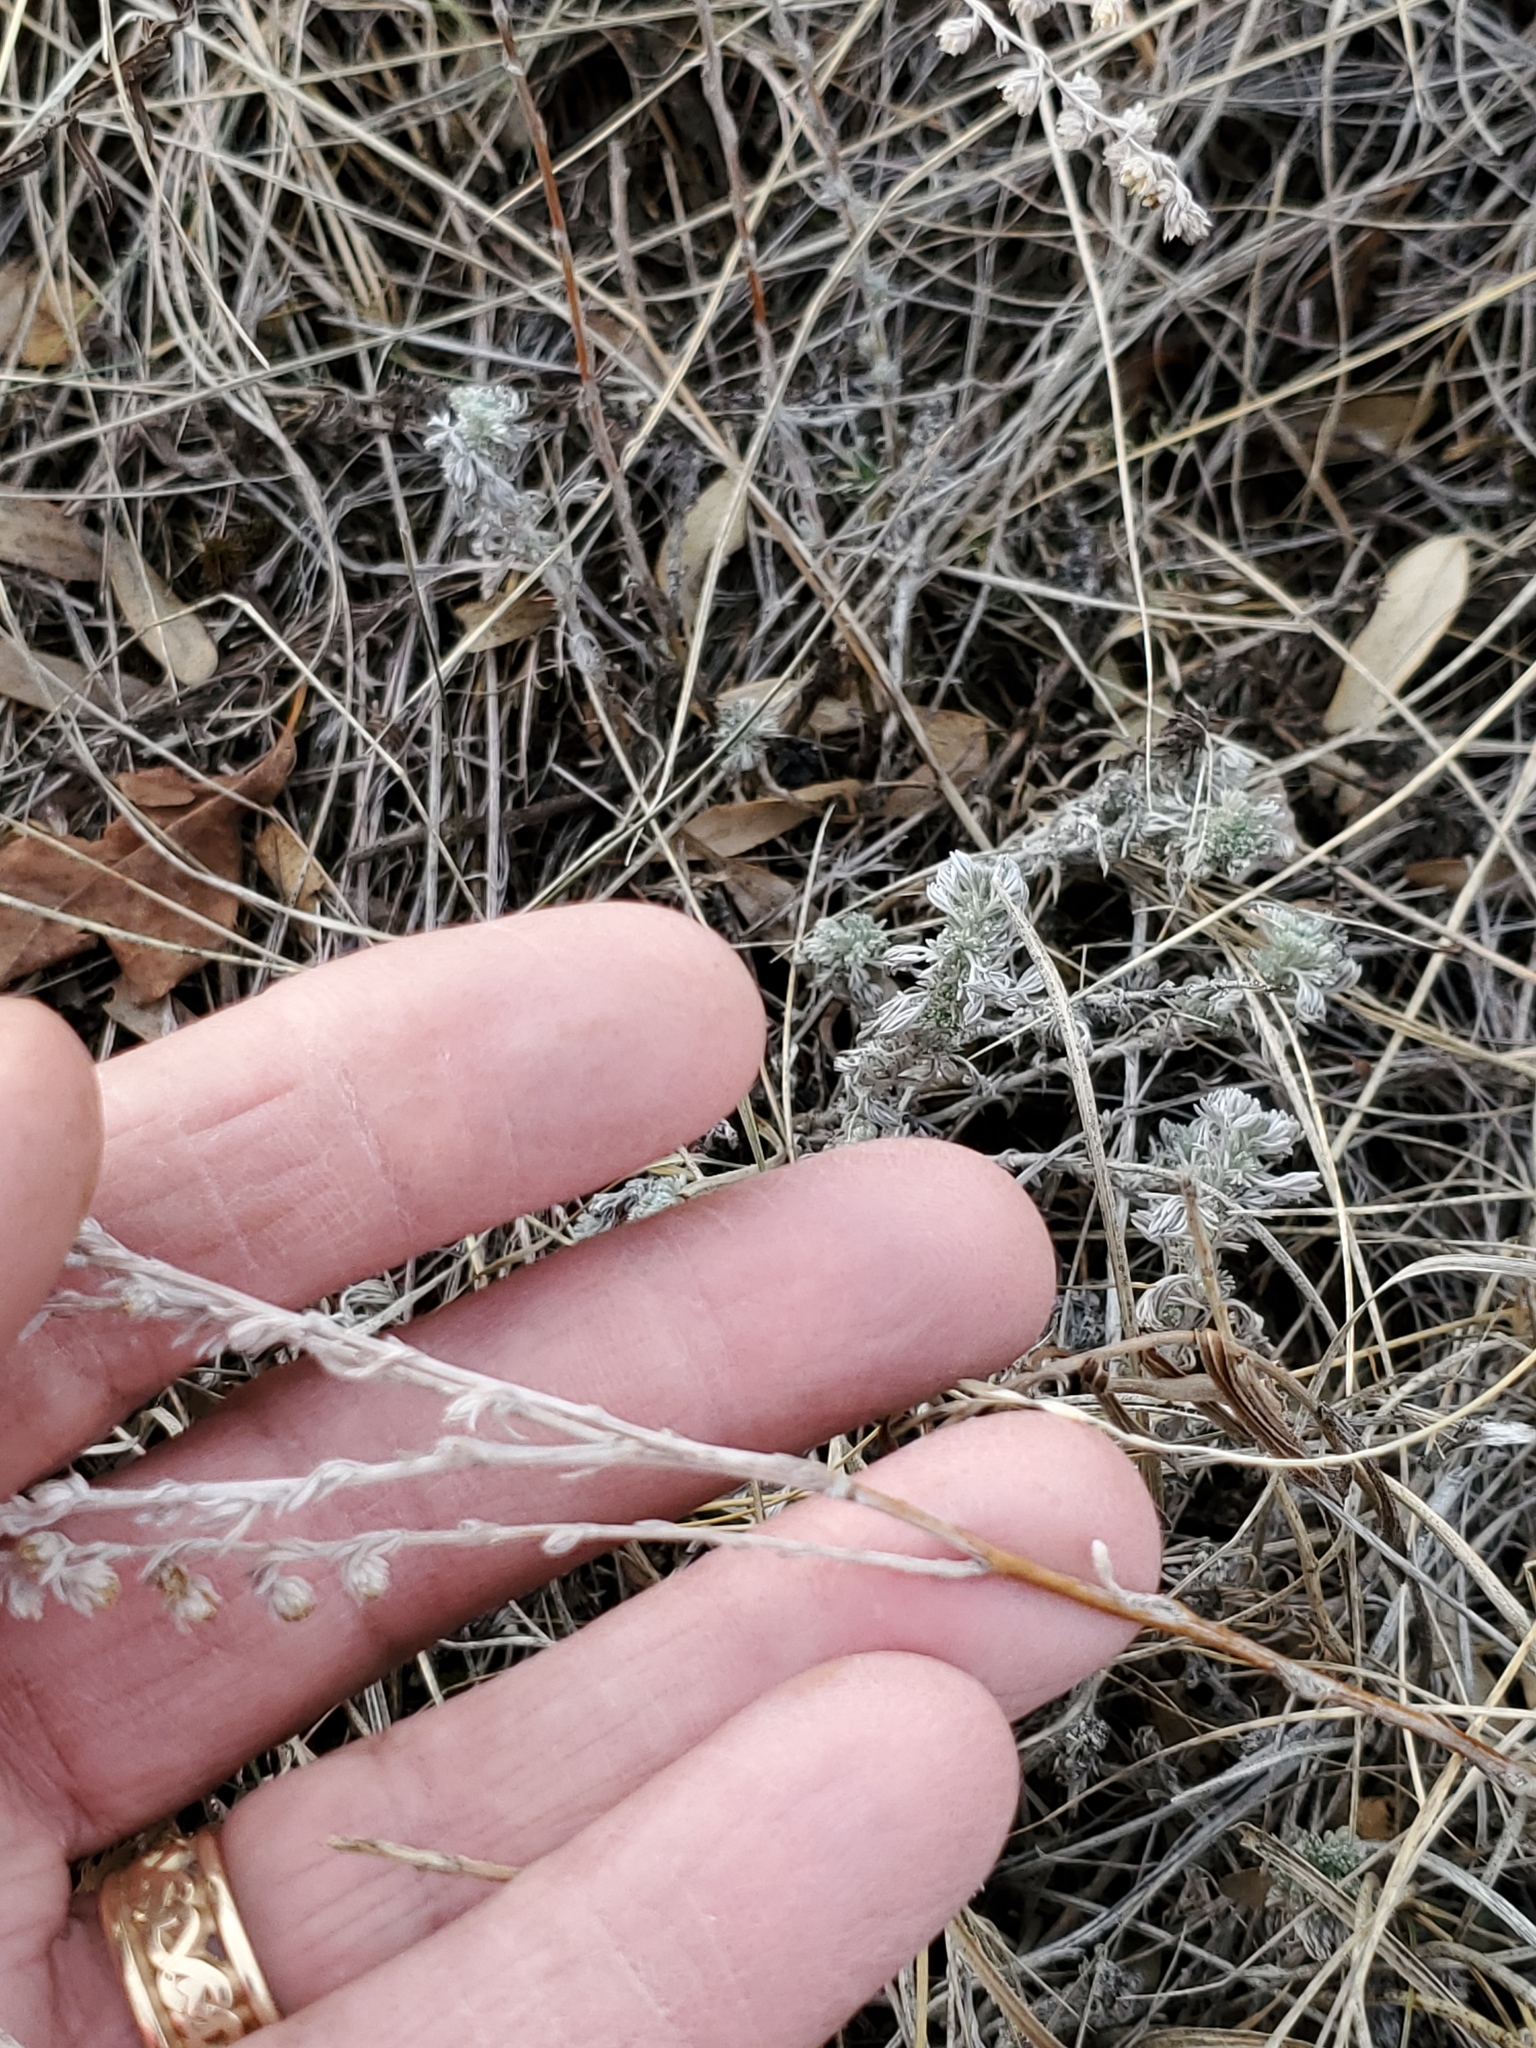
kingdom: Plantae
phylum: Tracheophyta
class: Magnoliopsida
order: Asterales
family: Asteraceae
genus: Artemisia
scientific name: Artemisia frigida
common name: Prairie sagewort
